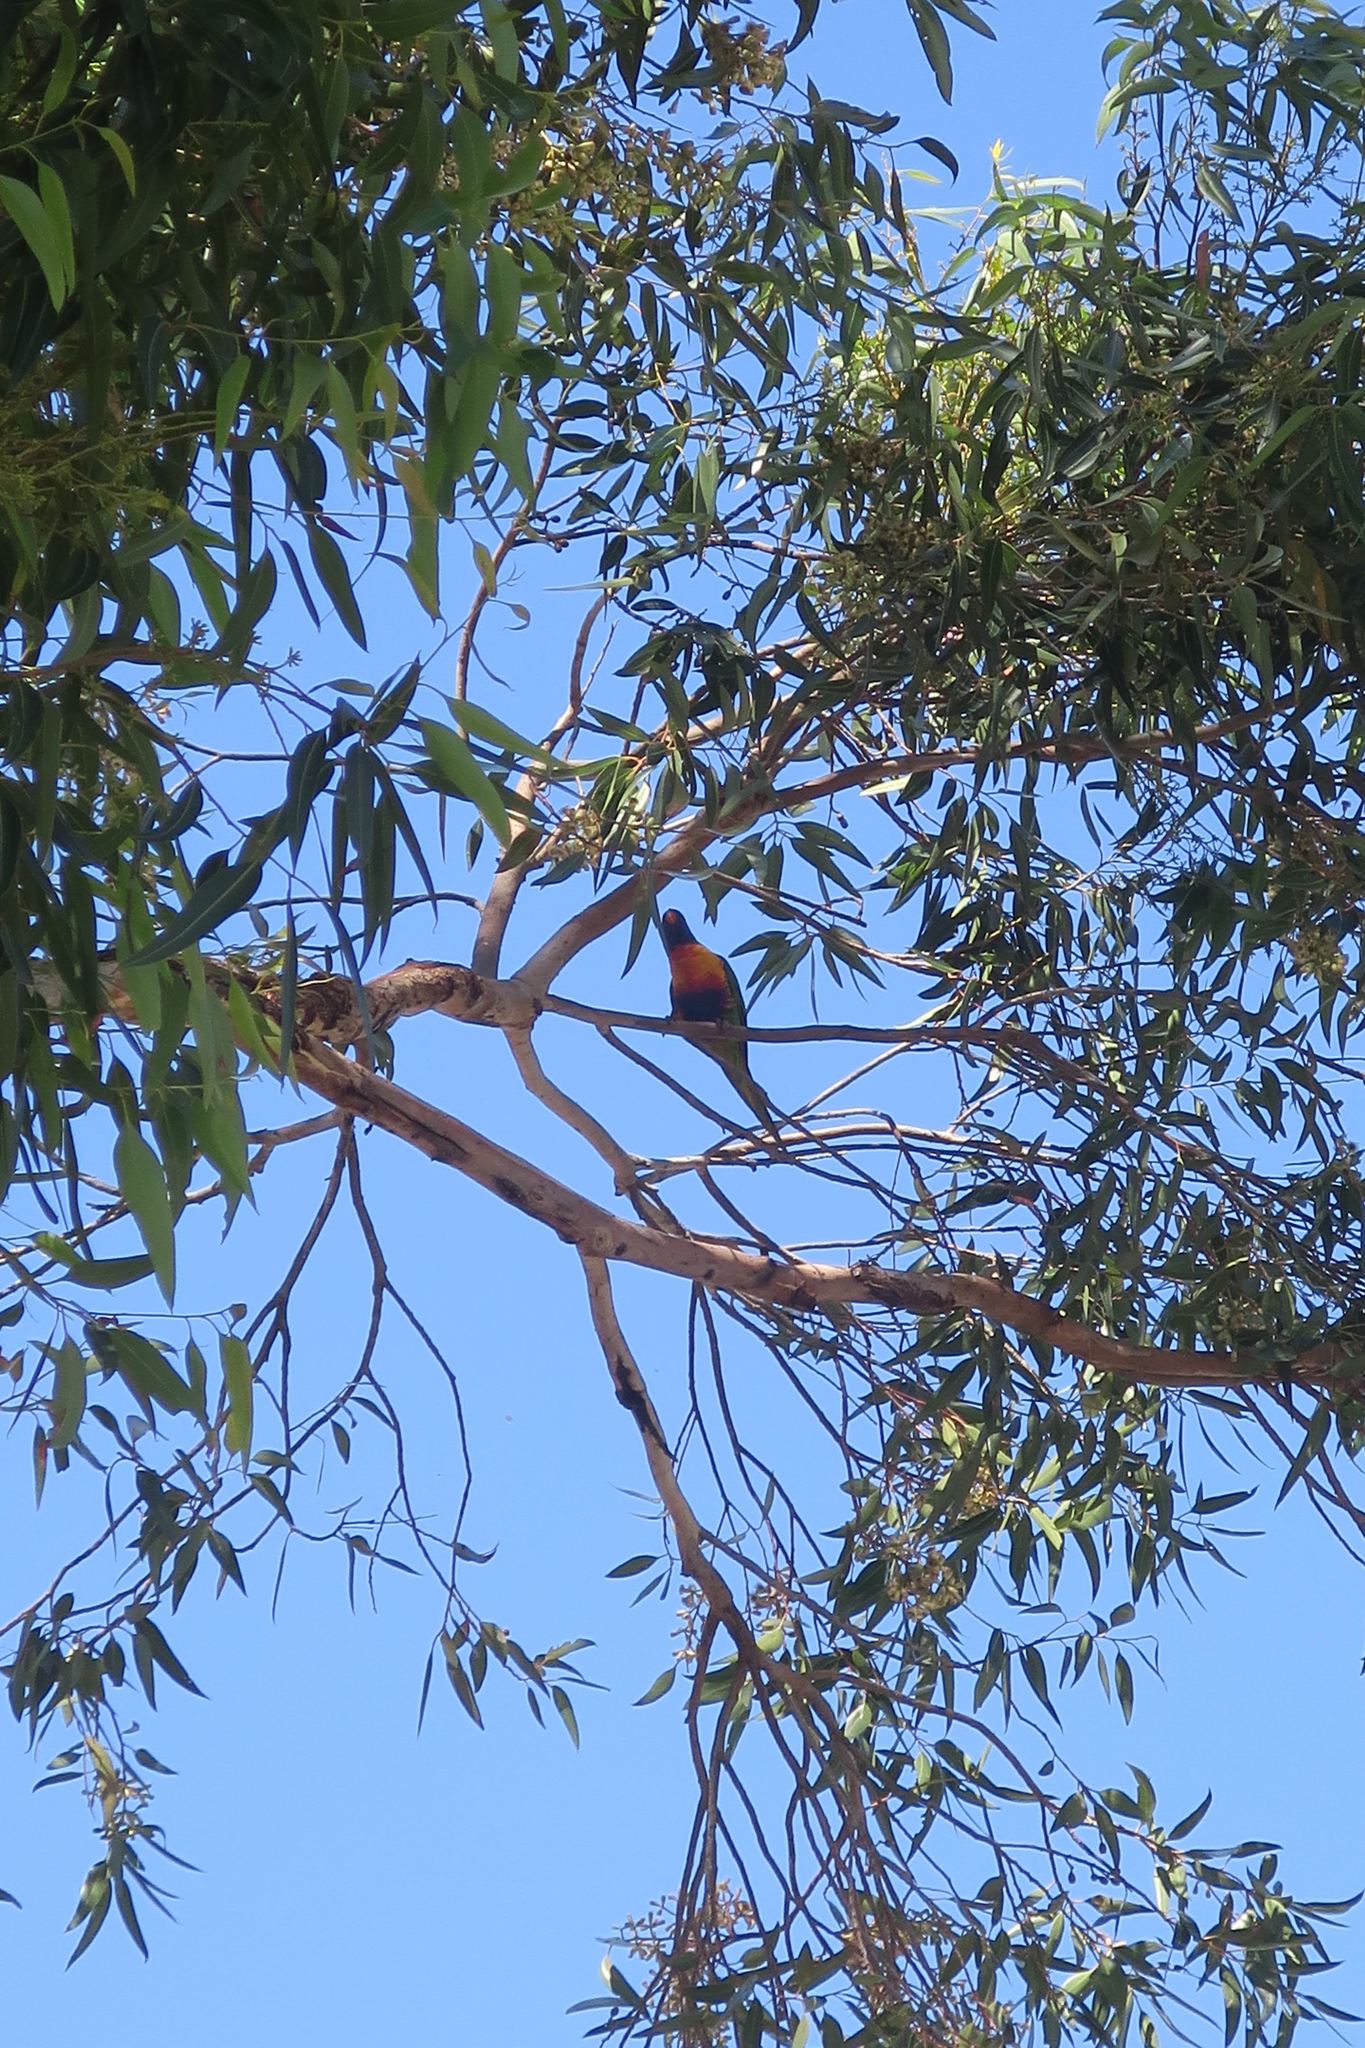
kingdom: Animalia
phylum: Chordata
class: Aves
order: Psittaciformes
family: Psittacidae
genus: Trichoglossus
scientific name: Trichoglossus haematodus
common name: Coconut lorikeet
